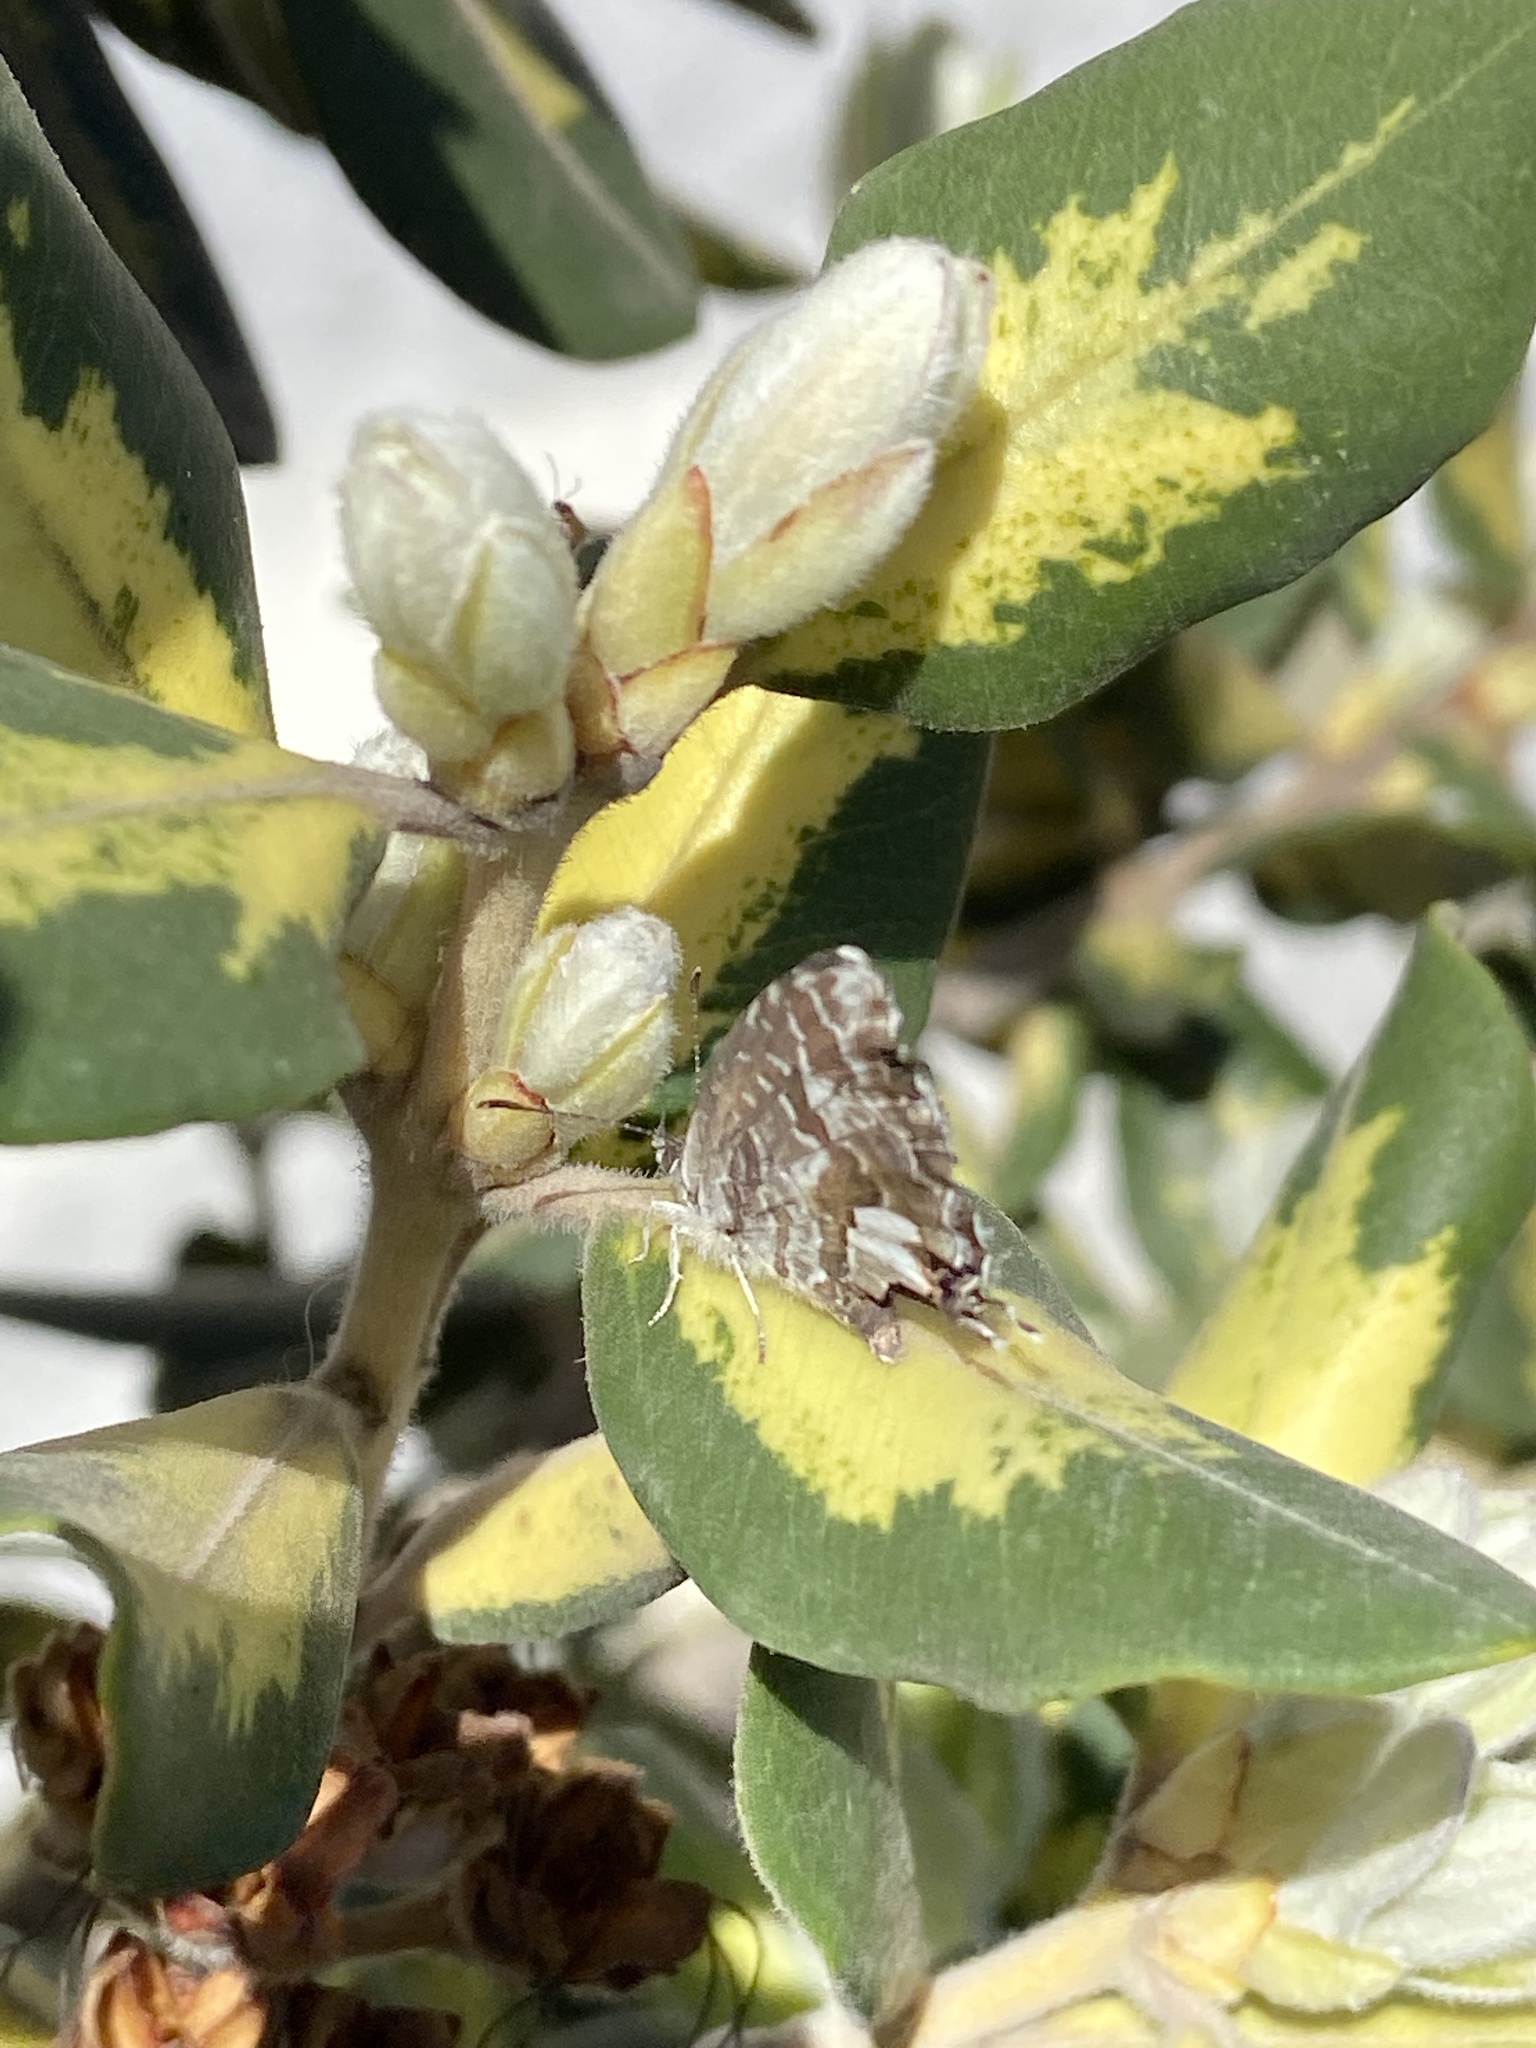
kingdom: Animalia
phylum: Arthropoda
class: Insecta
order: Lepidoptera
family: Lycaenidae
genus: Cacyreus
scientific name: Cacyreus marshalli
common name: Geranium bronze
